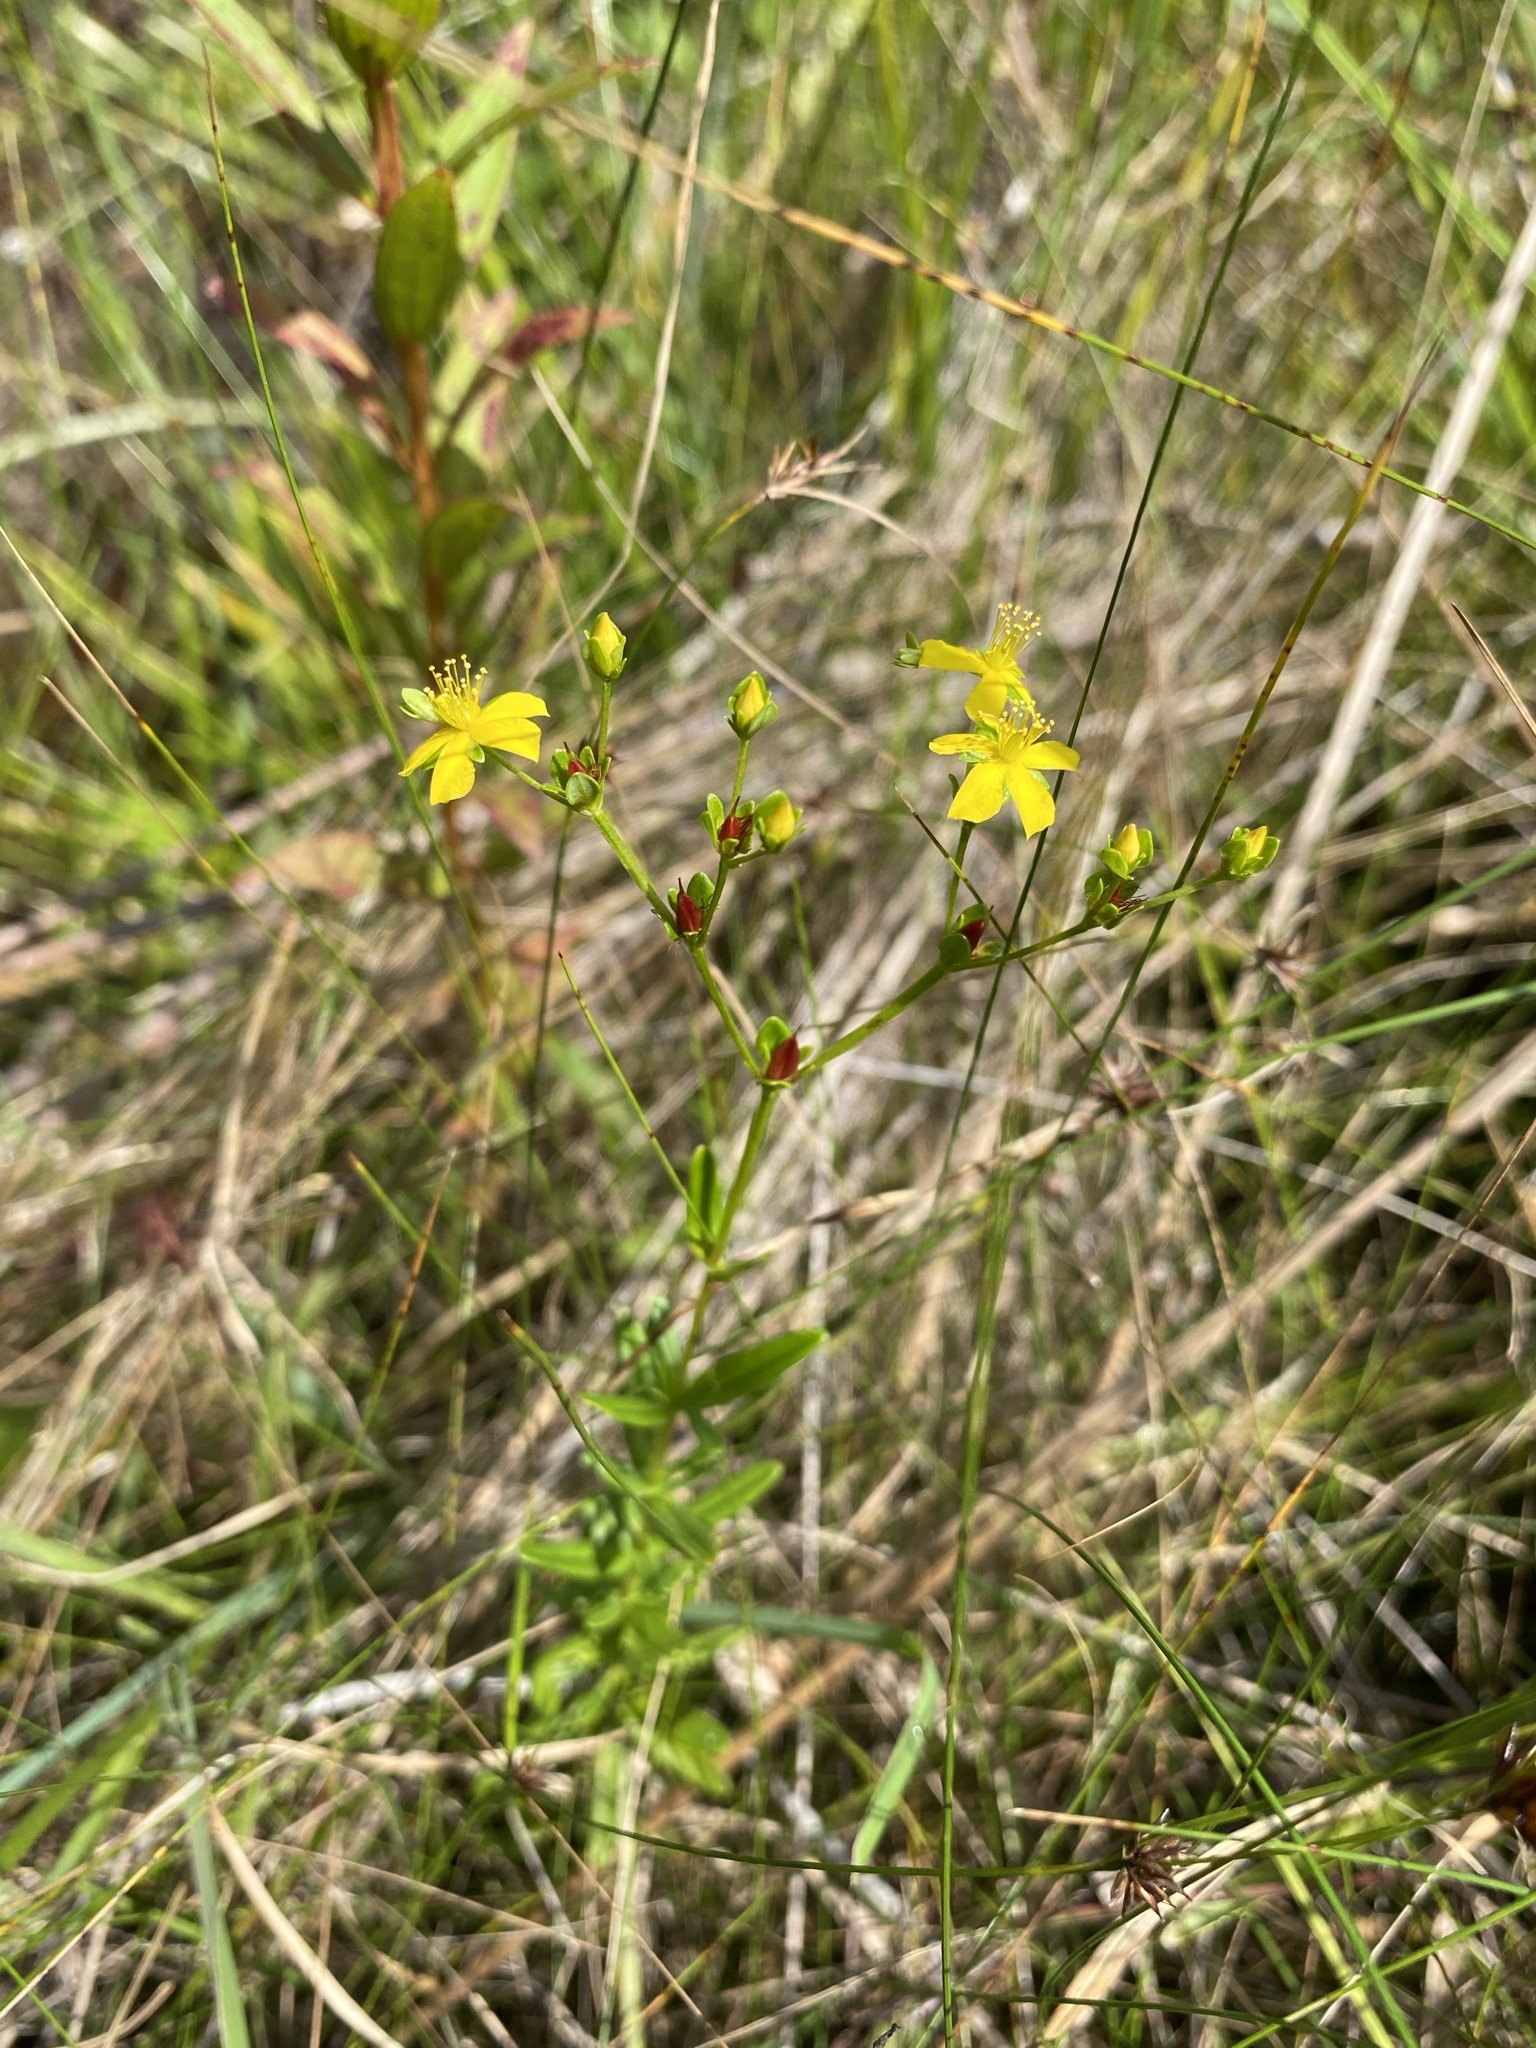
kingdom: Plantae
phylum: Tracheophyta
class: Magnoliopsida
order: Malpighiales
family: Hypericaceae
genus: Hypericum
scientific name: Hypericum cistifolium
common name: Round-pod st. john's-wort
